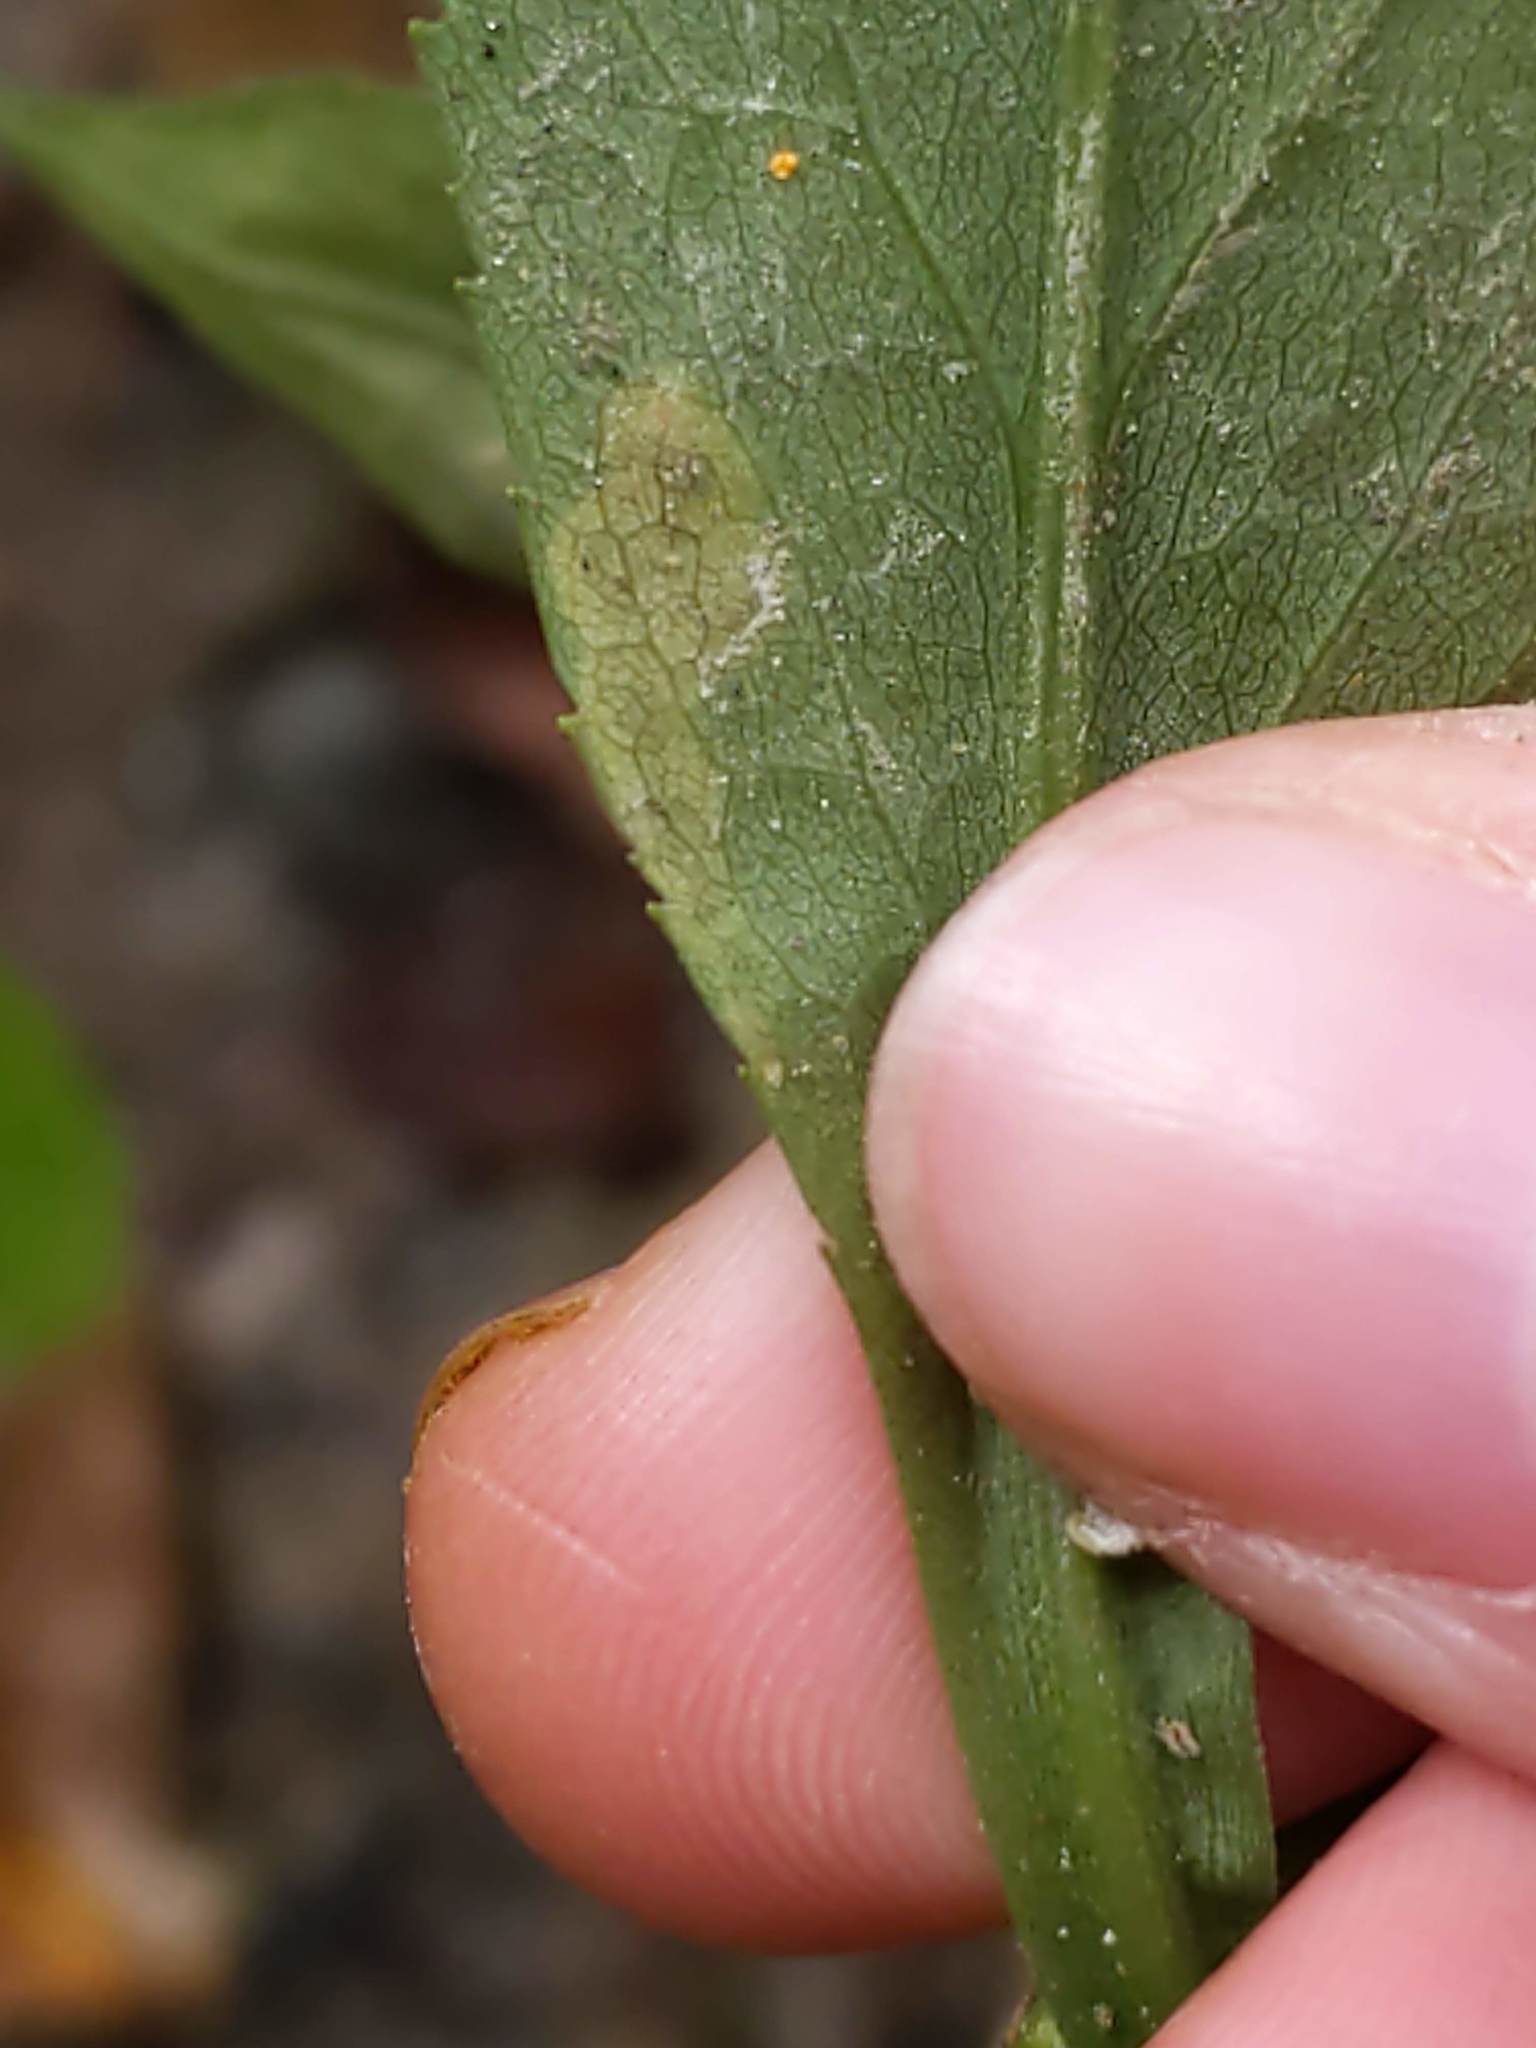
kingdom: Animalia
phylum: Arthropoda
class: Insecta
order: Diptera
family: Agromyzidae
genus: Nemorimyza
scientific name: Nemorimyza posticata
